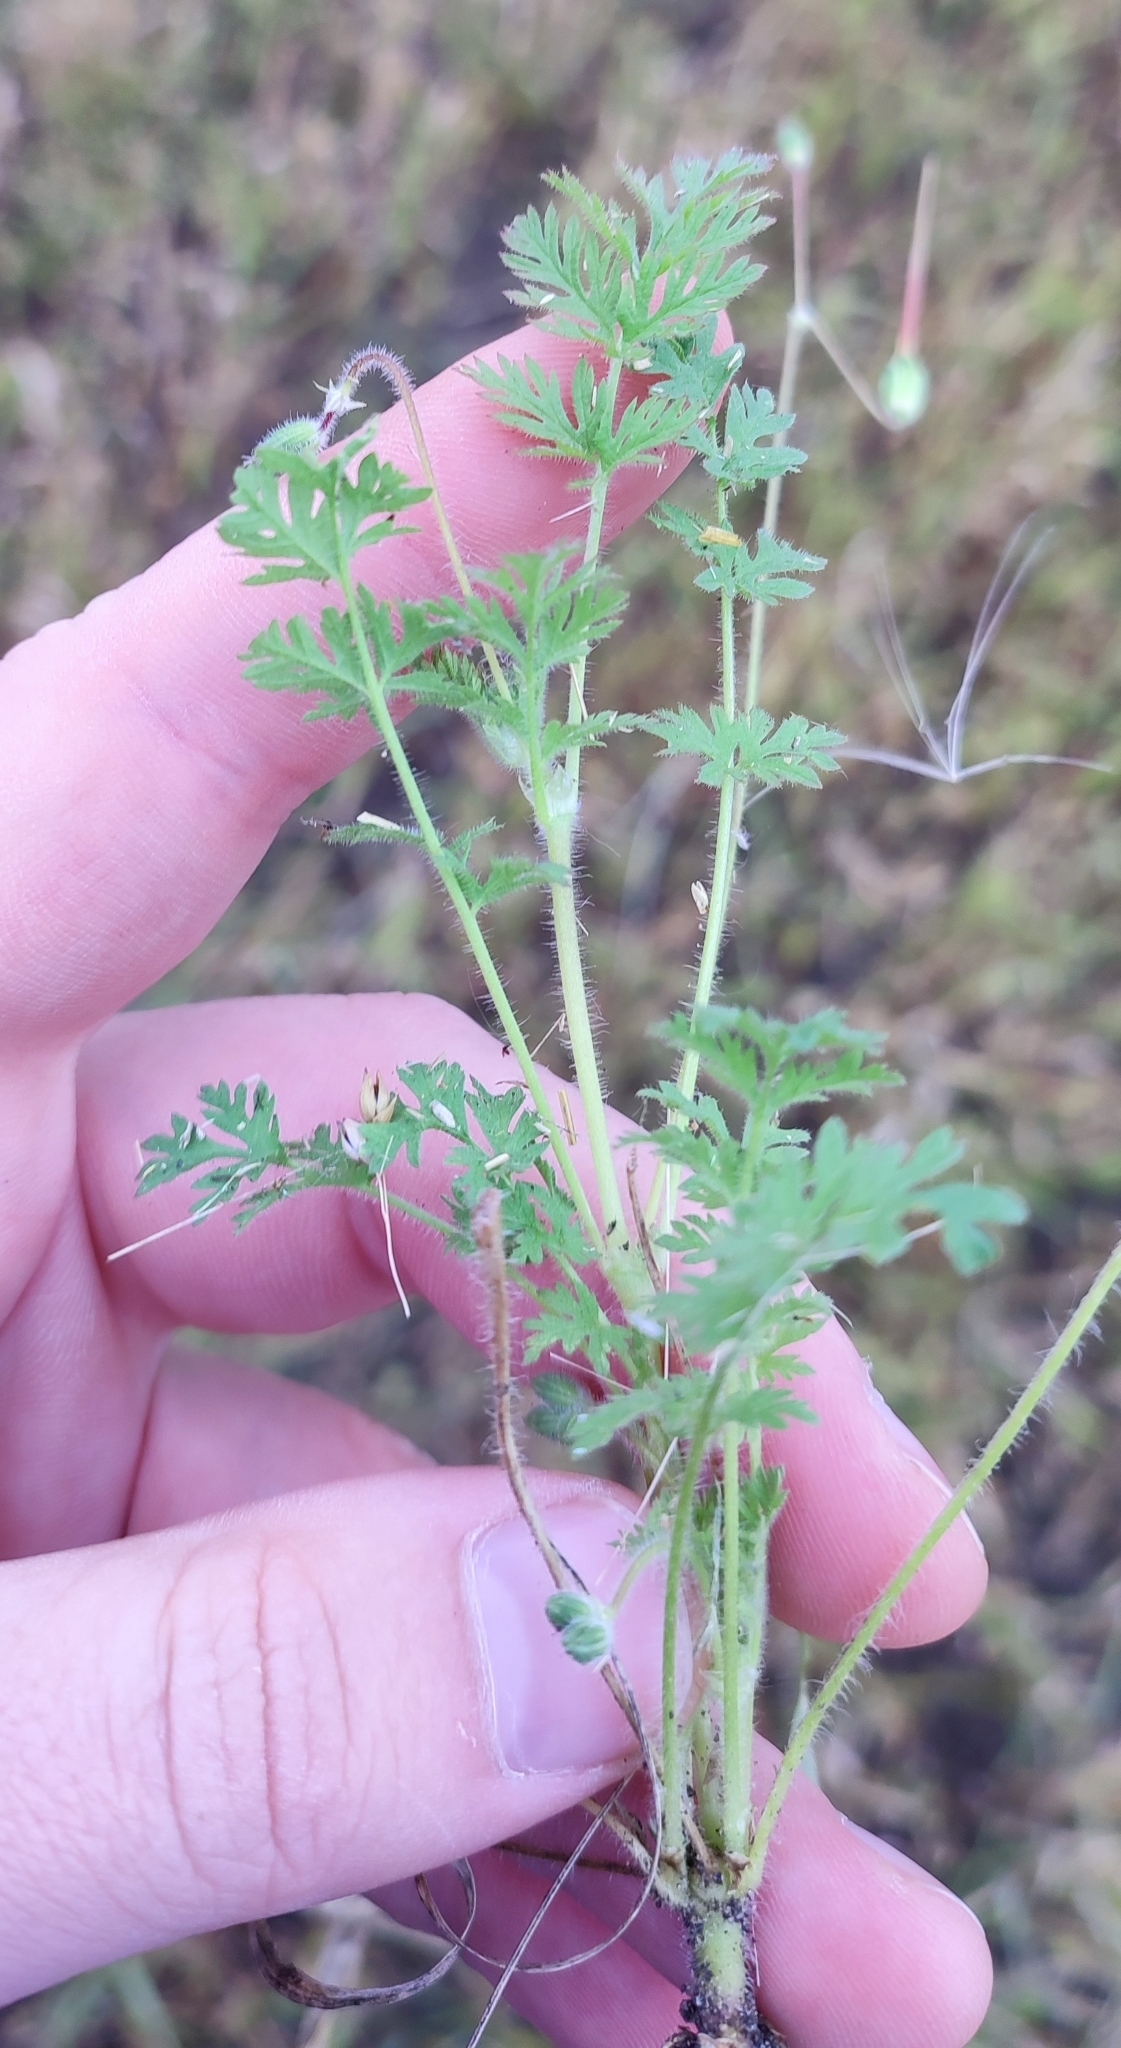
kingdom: Plantae
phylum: Tracheophyta
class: Magnoliopsida
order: Geraniales
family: Geraniaceae
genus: Erodium
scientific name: Erodium cicutarium
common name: Common stork's-bill
